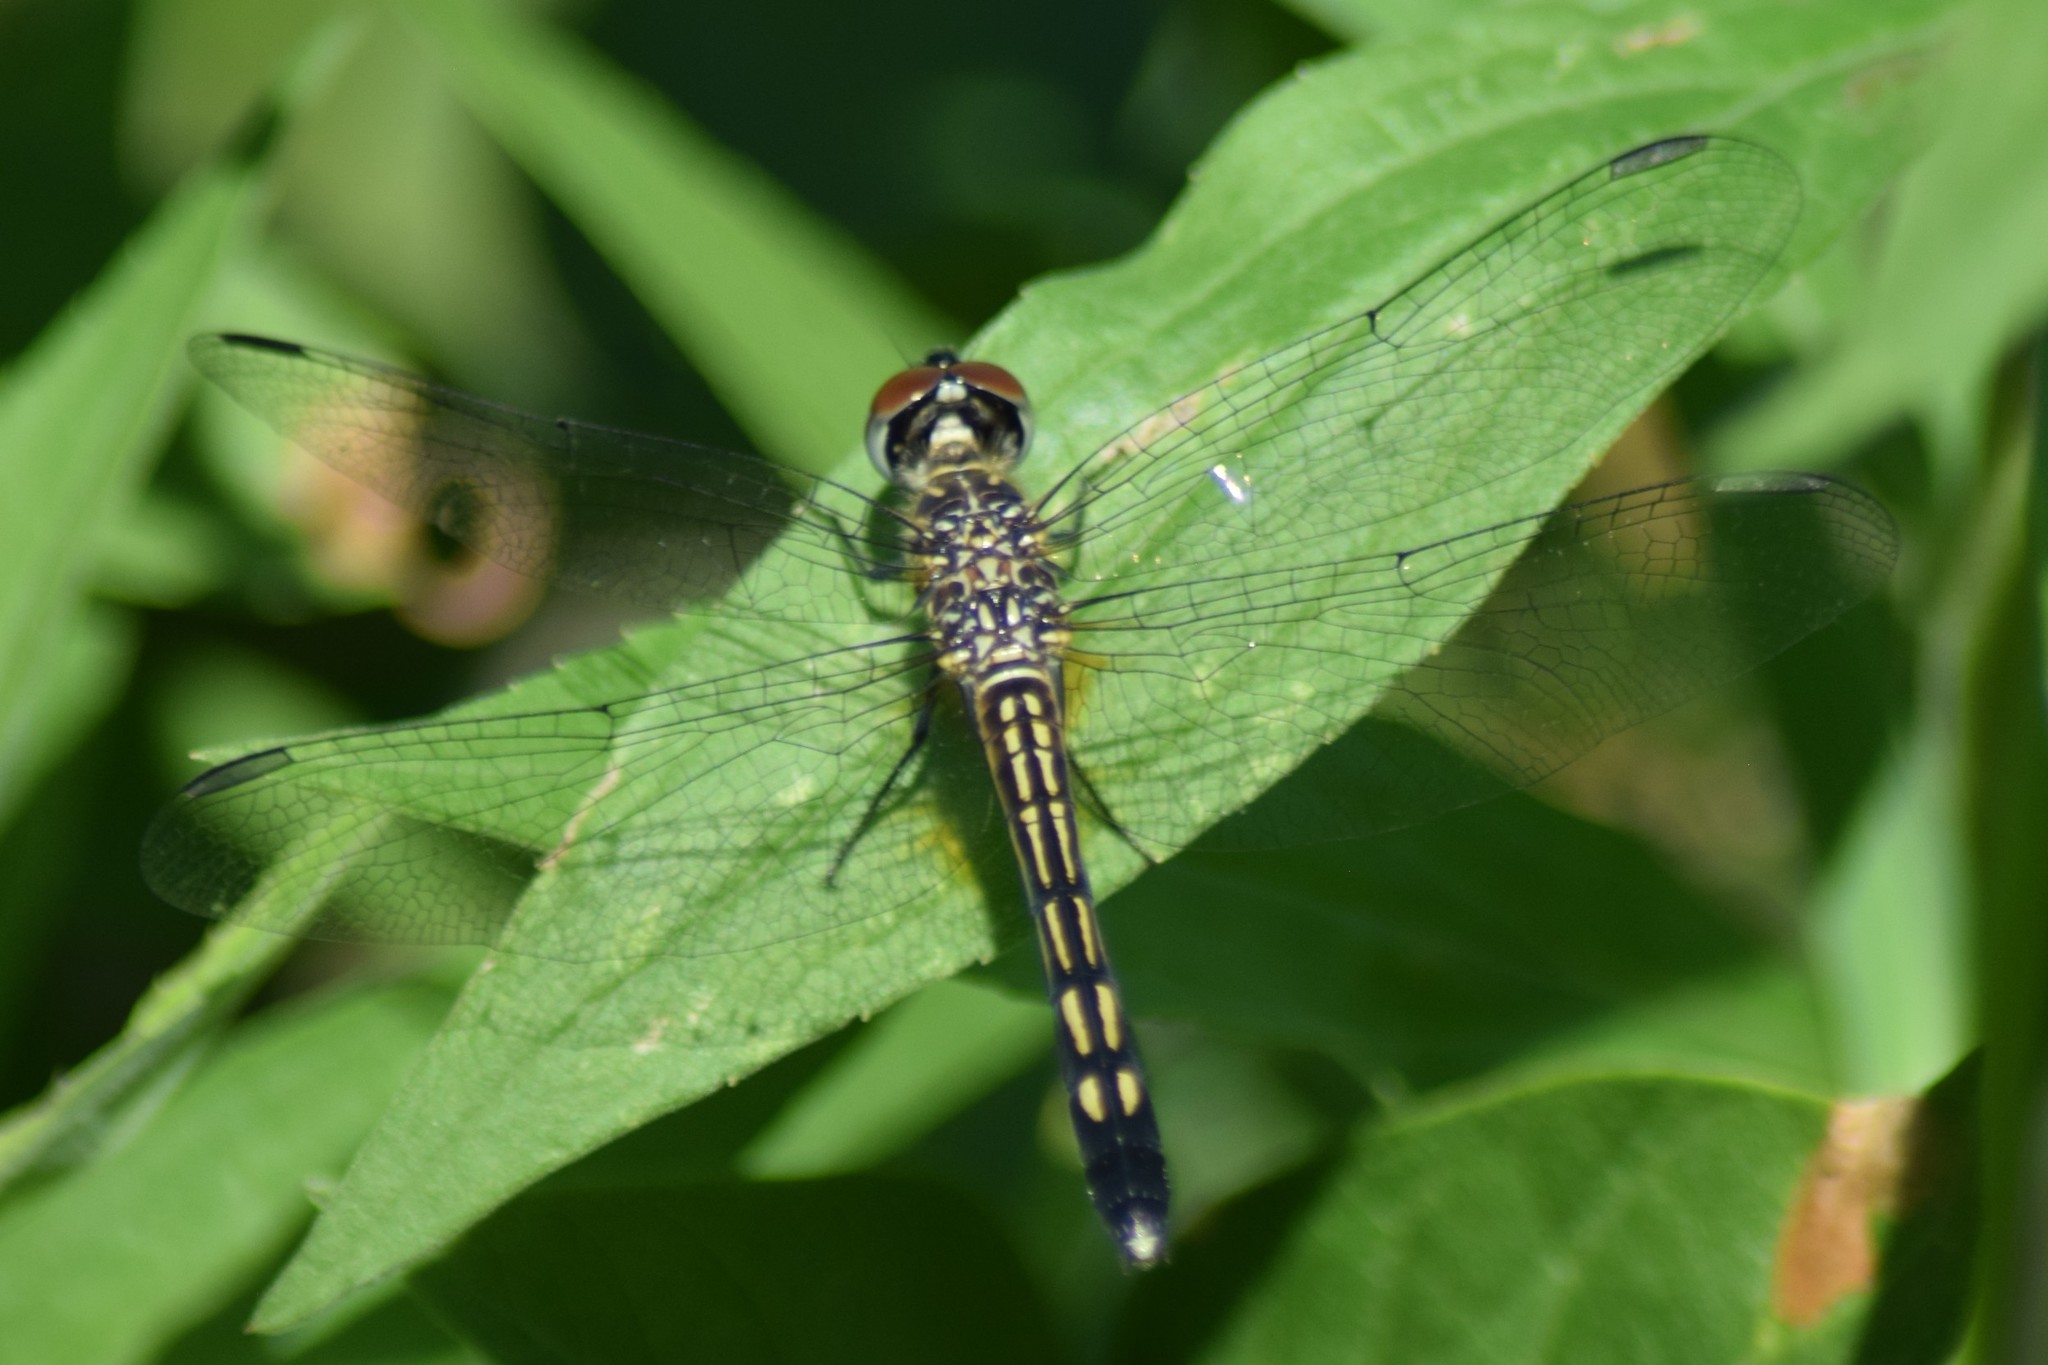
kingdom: Animalia
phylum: Arthropoda
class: Insecta
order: Odonata
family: Libellulidae
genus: Pachydiplax
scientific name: Pachydiplax longipennis
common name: Blue dasher
